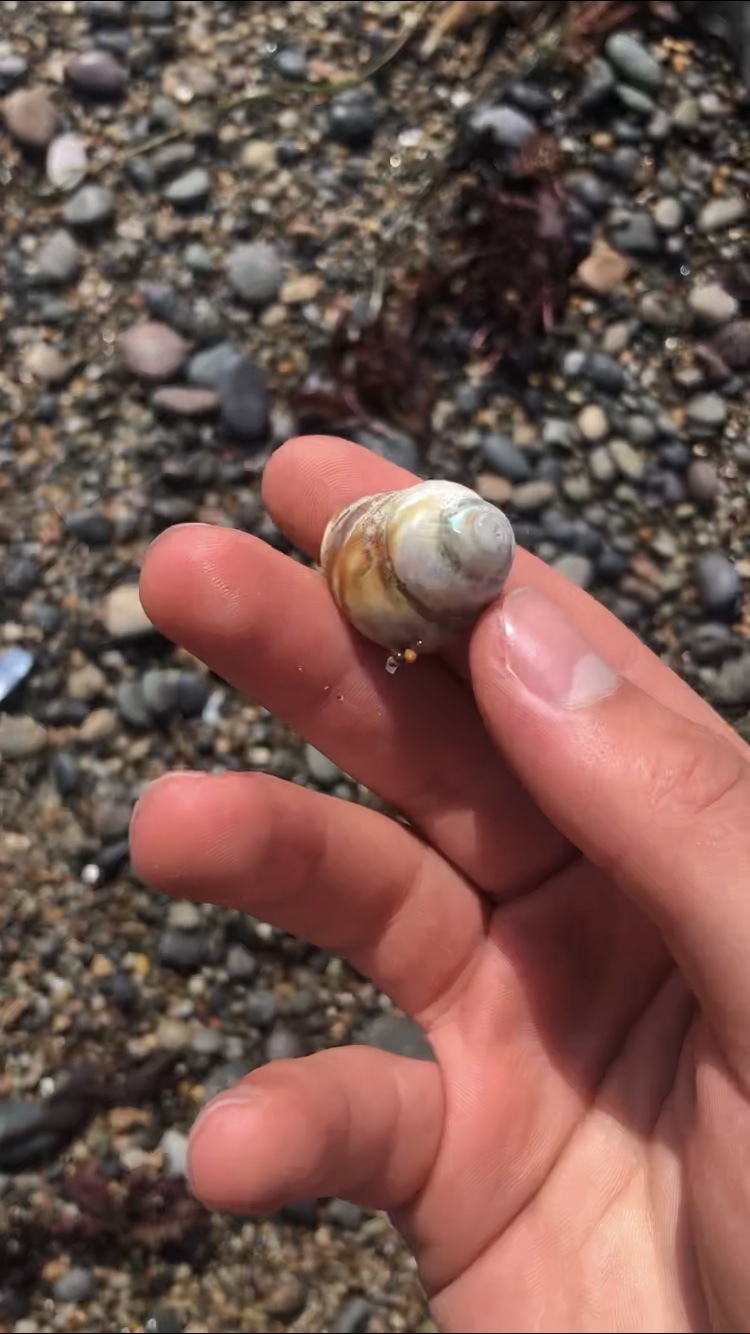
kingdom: Animalia
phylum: Mollusca
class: Gastropoda
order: Trochida
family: Tegulidae
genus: Tegula
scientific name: Tegula brunnea
